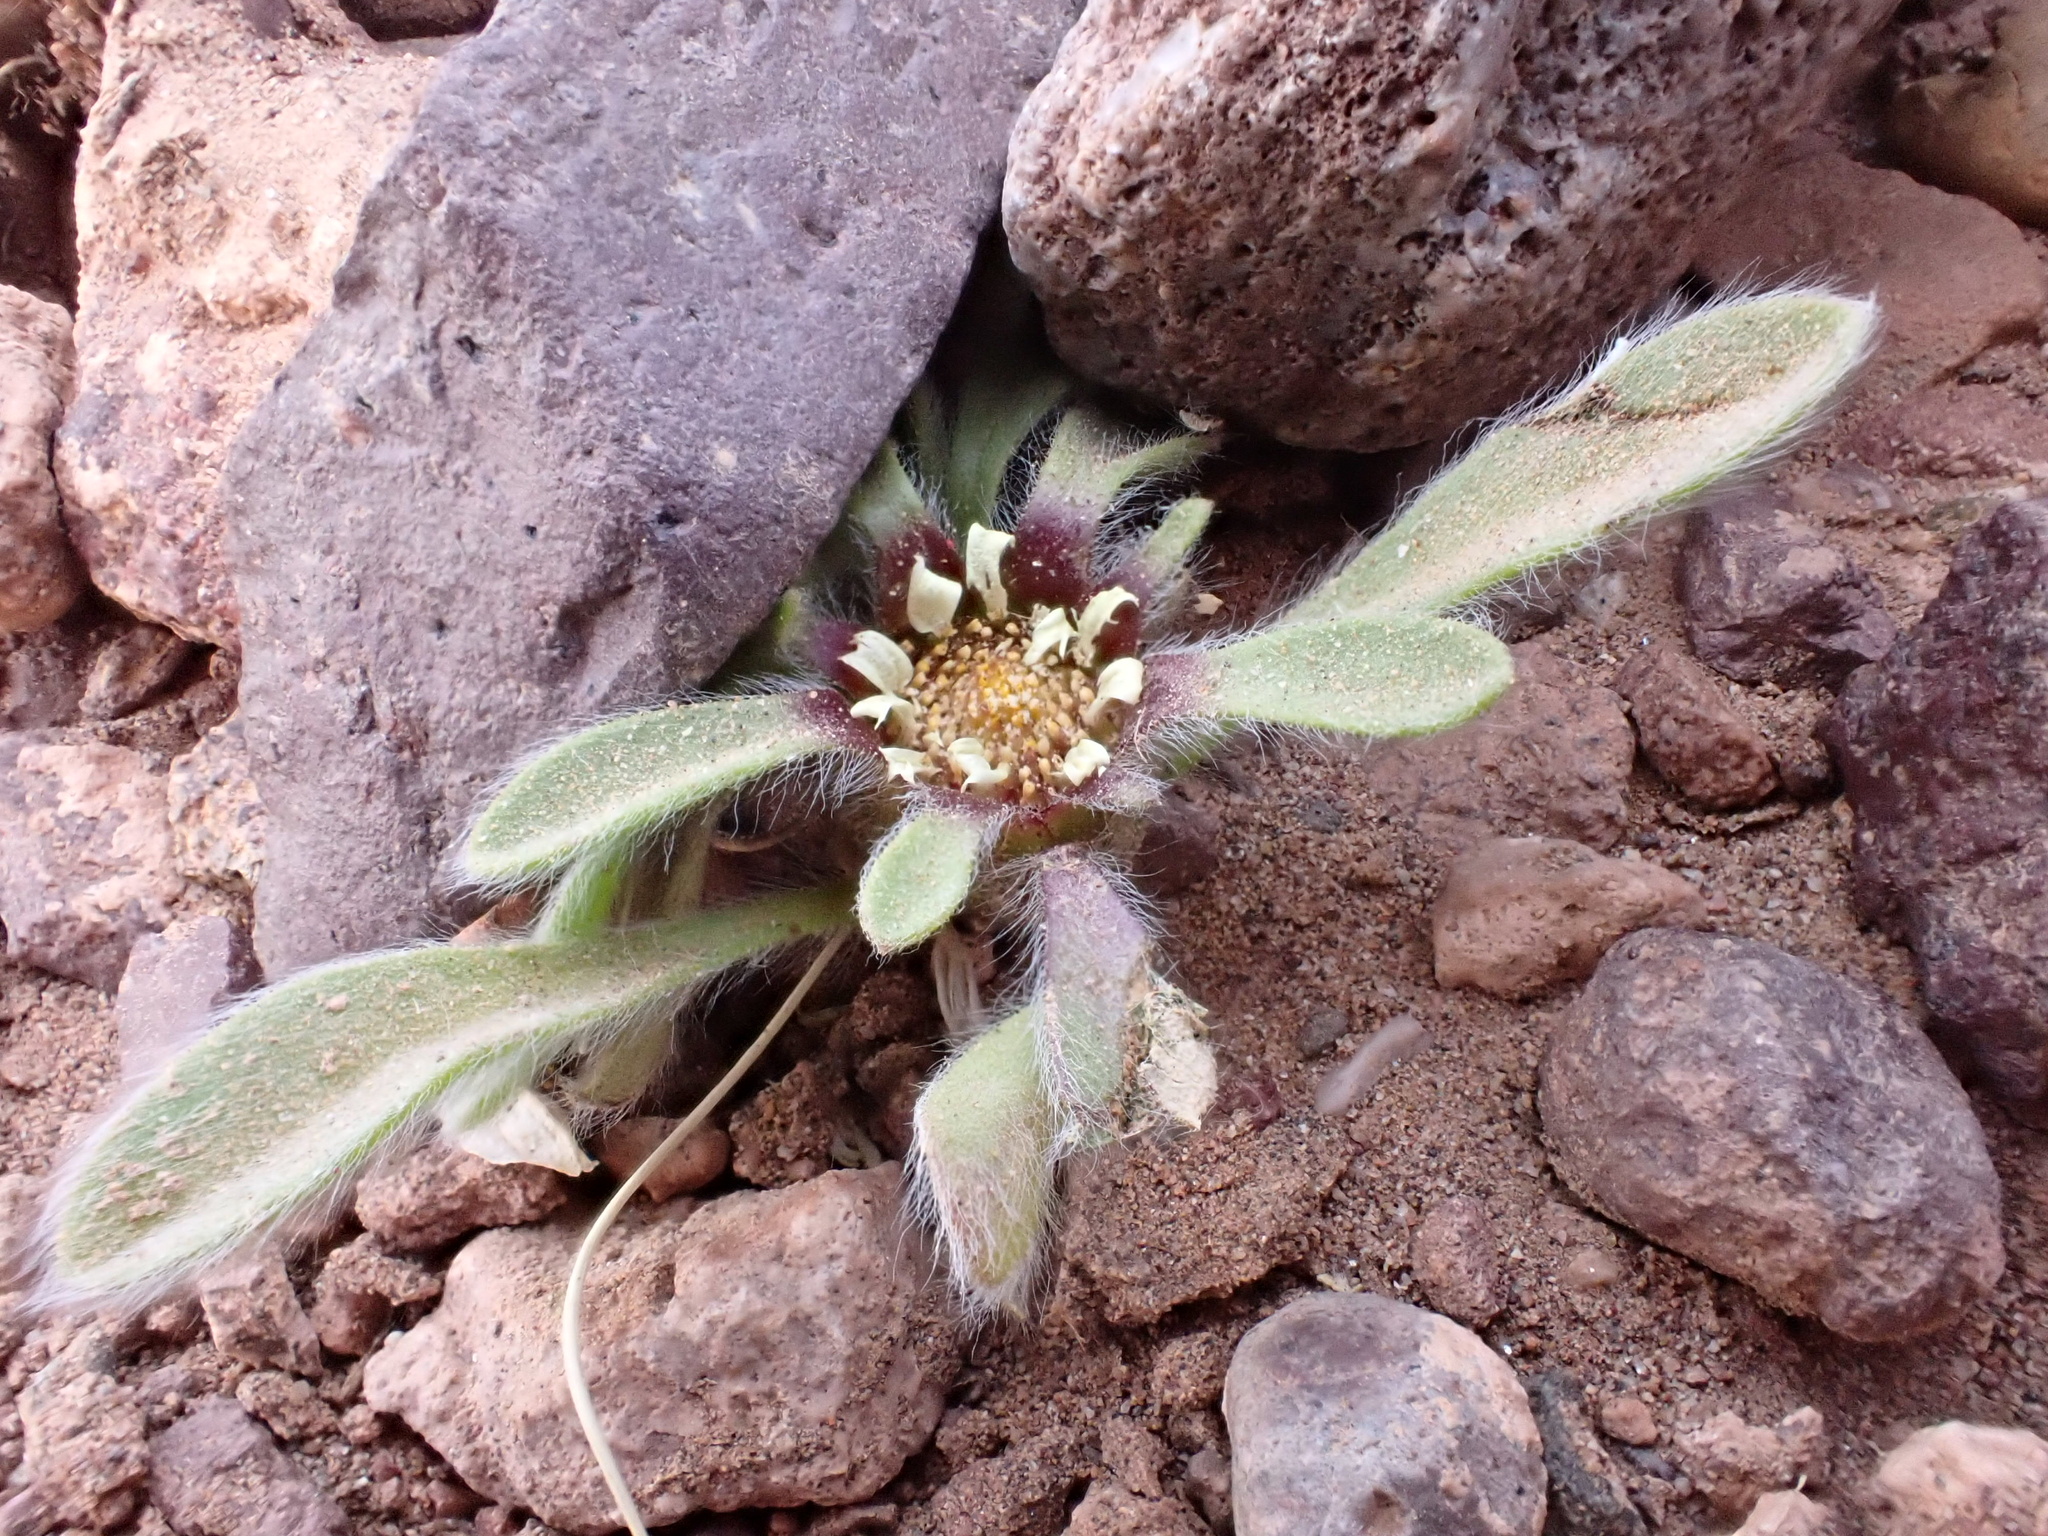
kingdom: Plantae
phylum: Tracheophyta
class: Magnoliopsida
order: Asterales
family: Asteraceae
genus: Pallenis
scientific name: Pallenis hierochuntica
